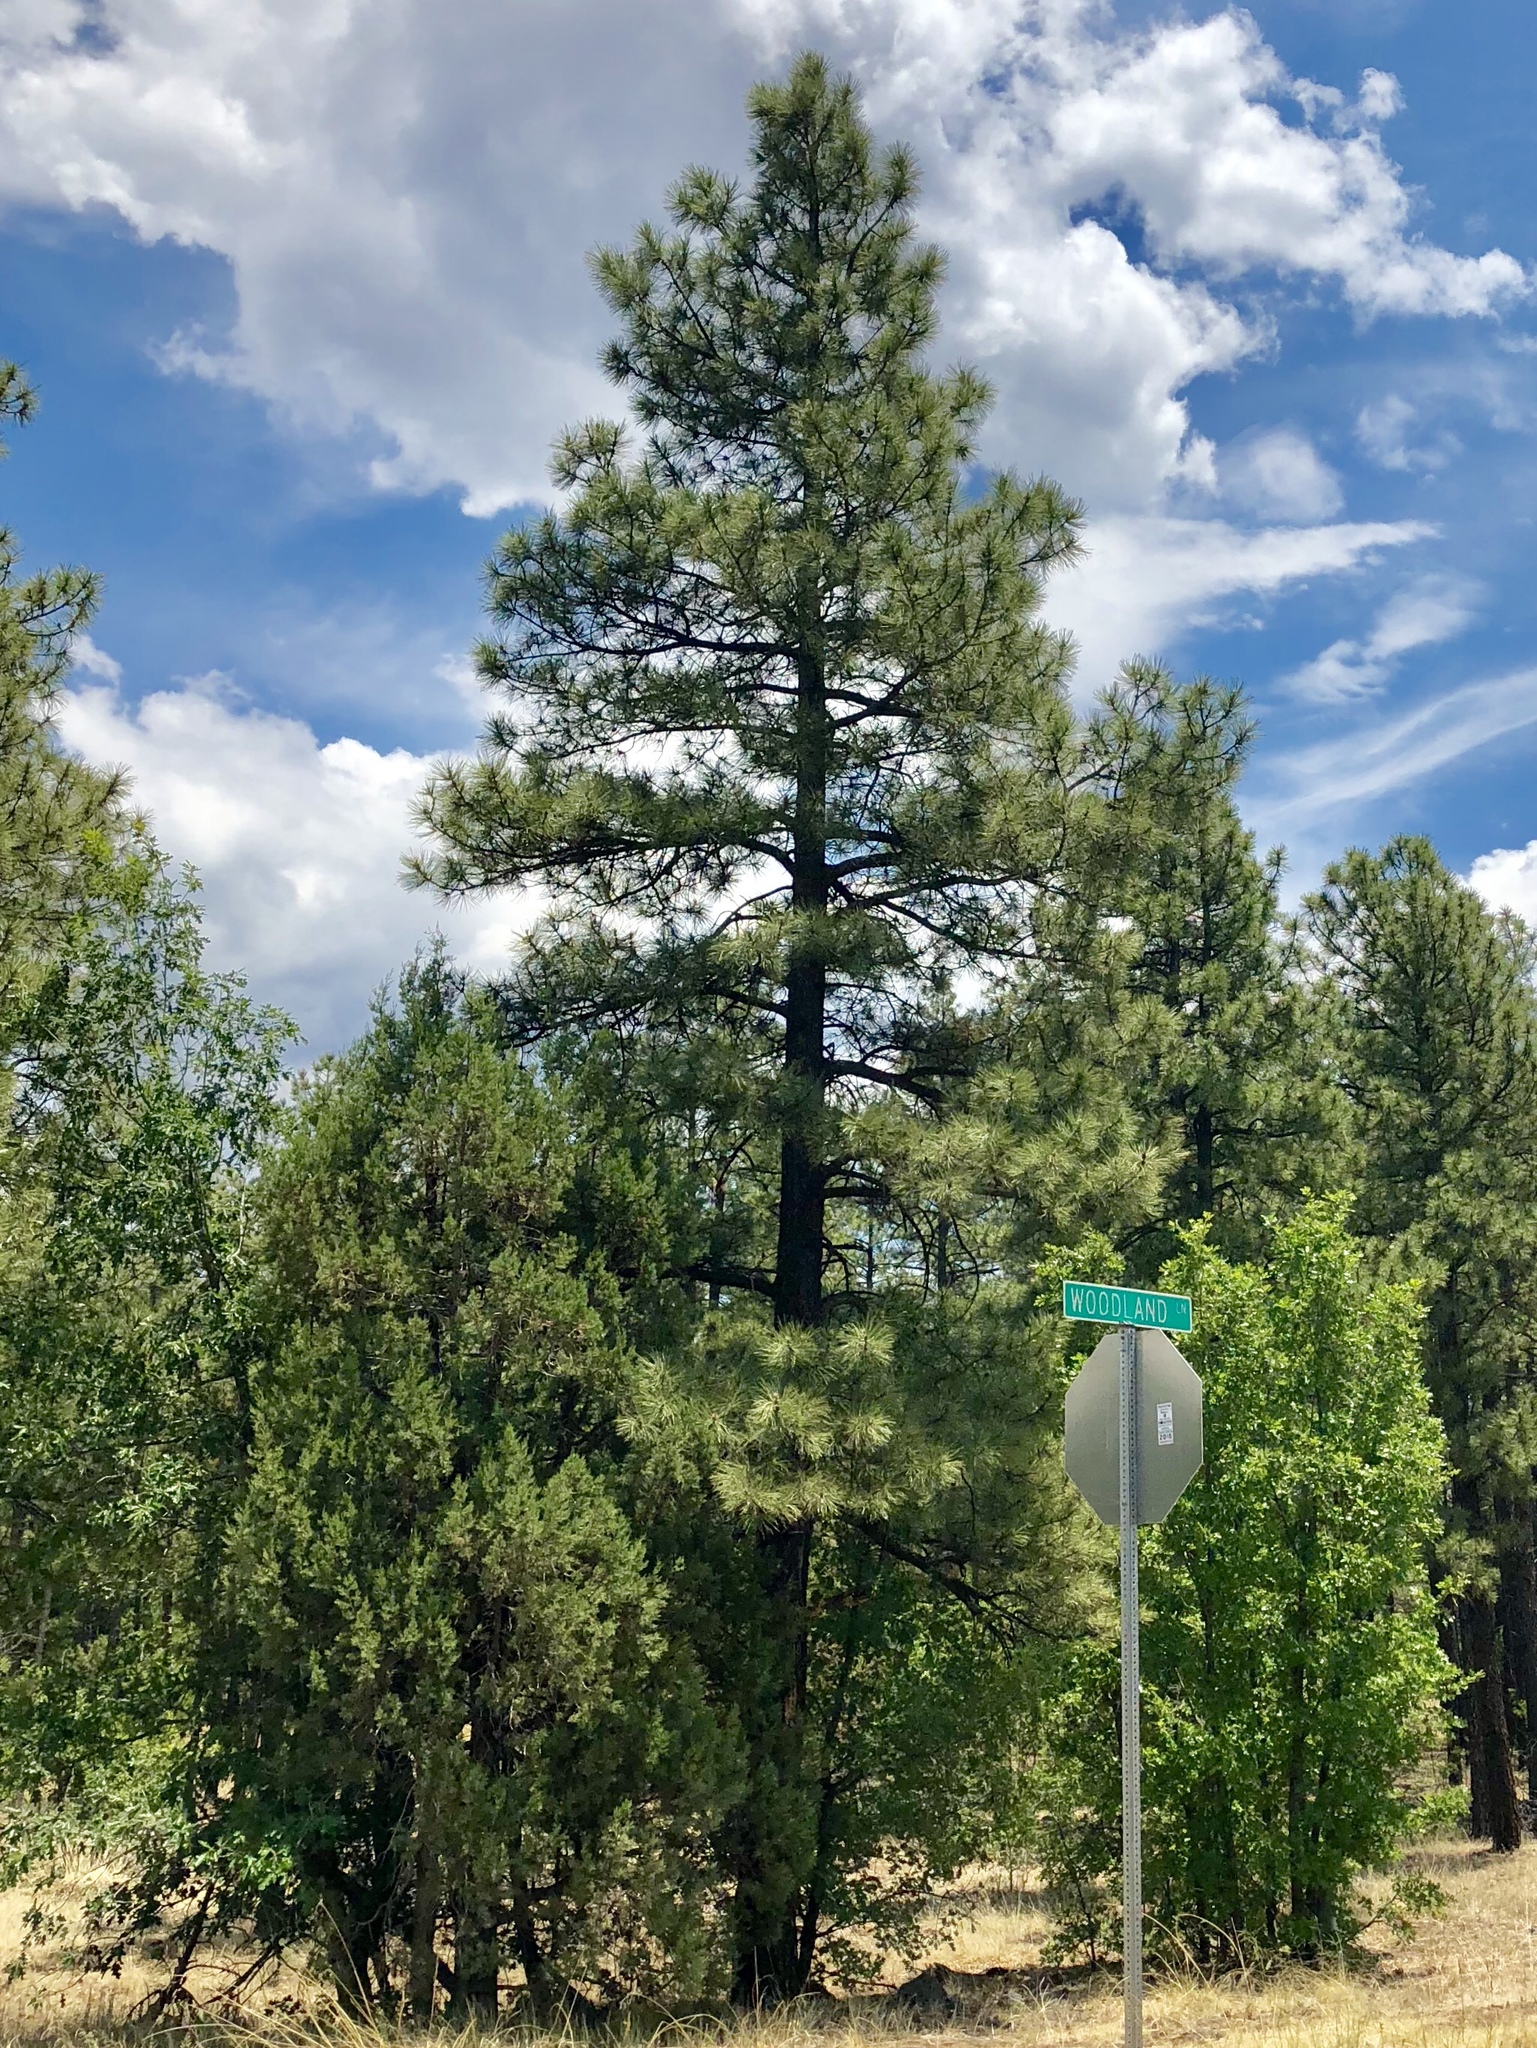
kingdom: Plantae
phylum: Tracheophyta
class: Pinopsida
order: Pinales
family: Pinaceae
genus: Pinus
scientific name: Pinus ponderosa
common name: Western yellow-pine
